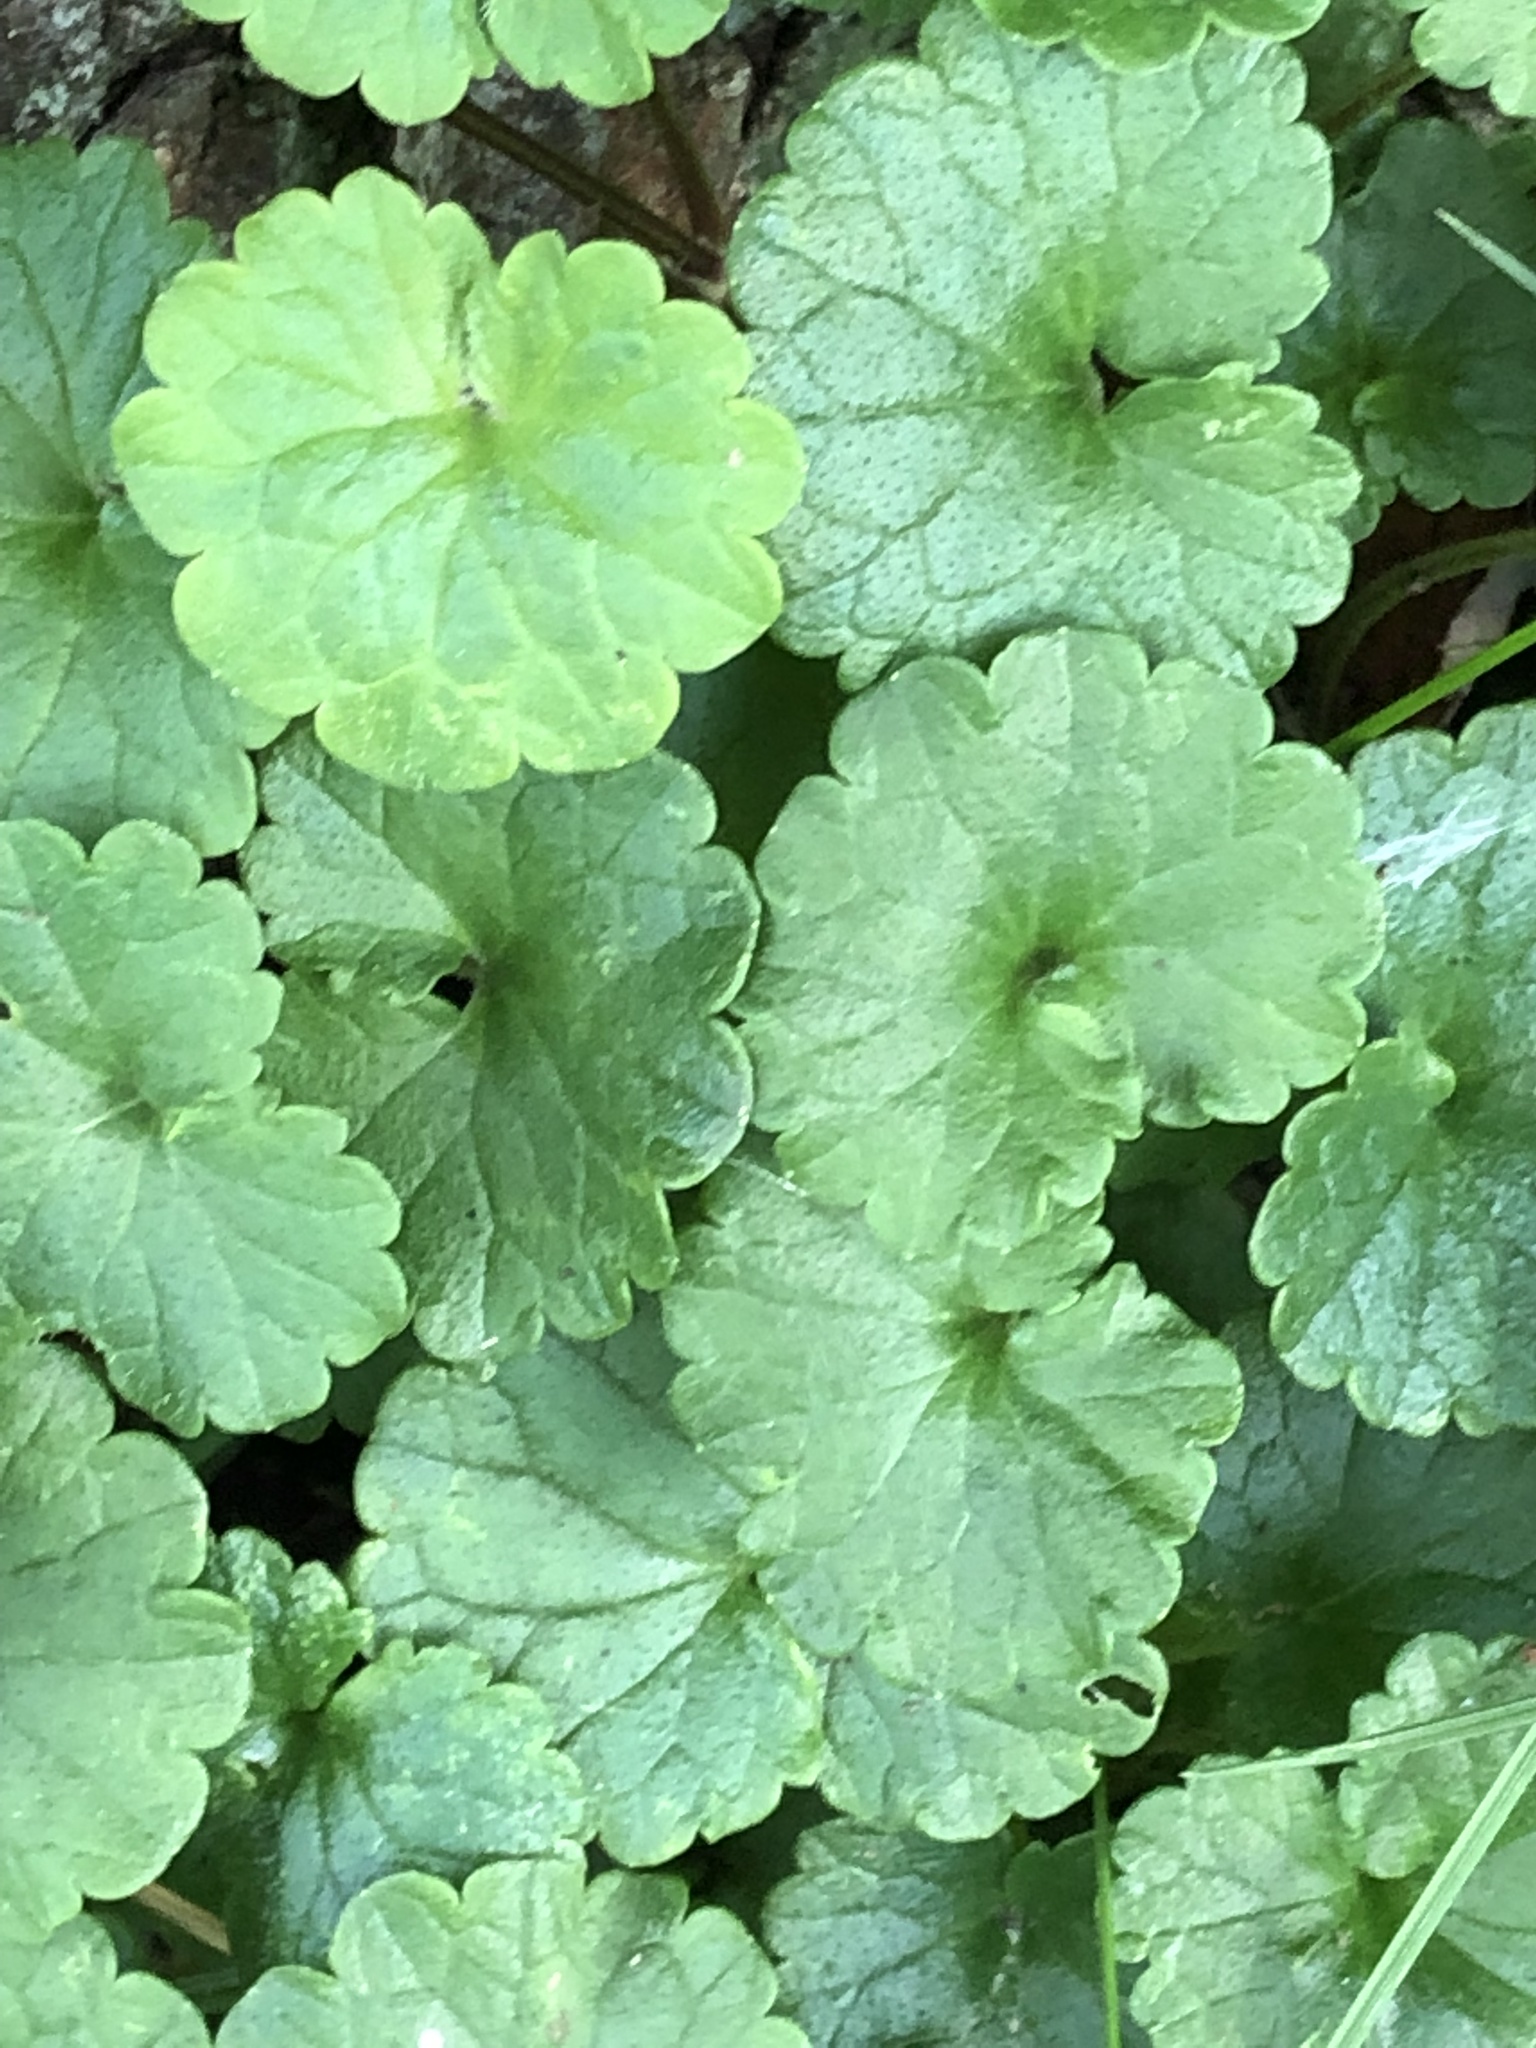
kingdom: Plantae
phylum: Tracheophyta
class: Magnoliopsida
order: Lamiales
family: Lamiaceae
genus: Glechoma
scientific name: Glechoma hederacea
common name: Ground ivy
